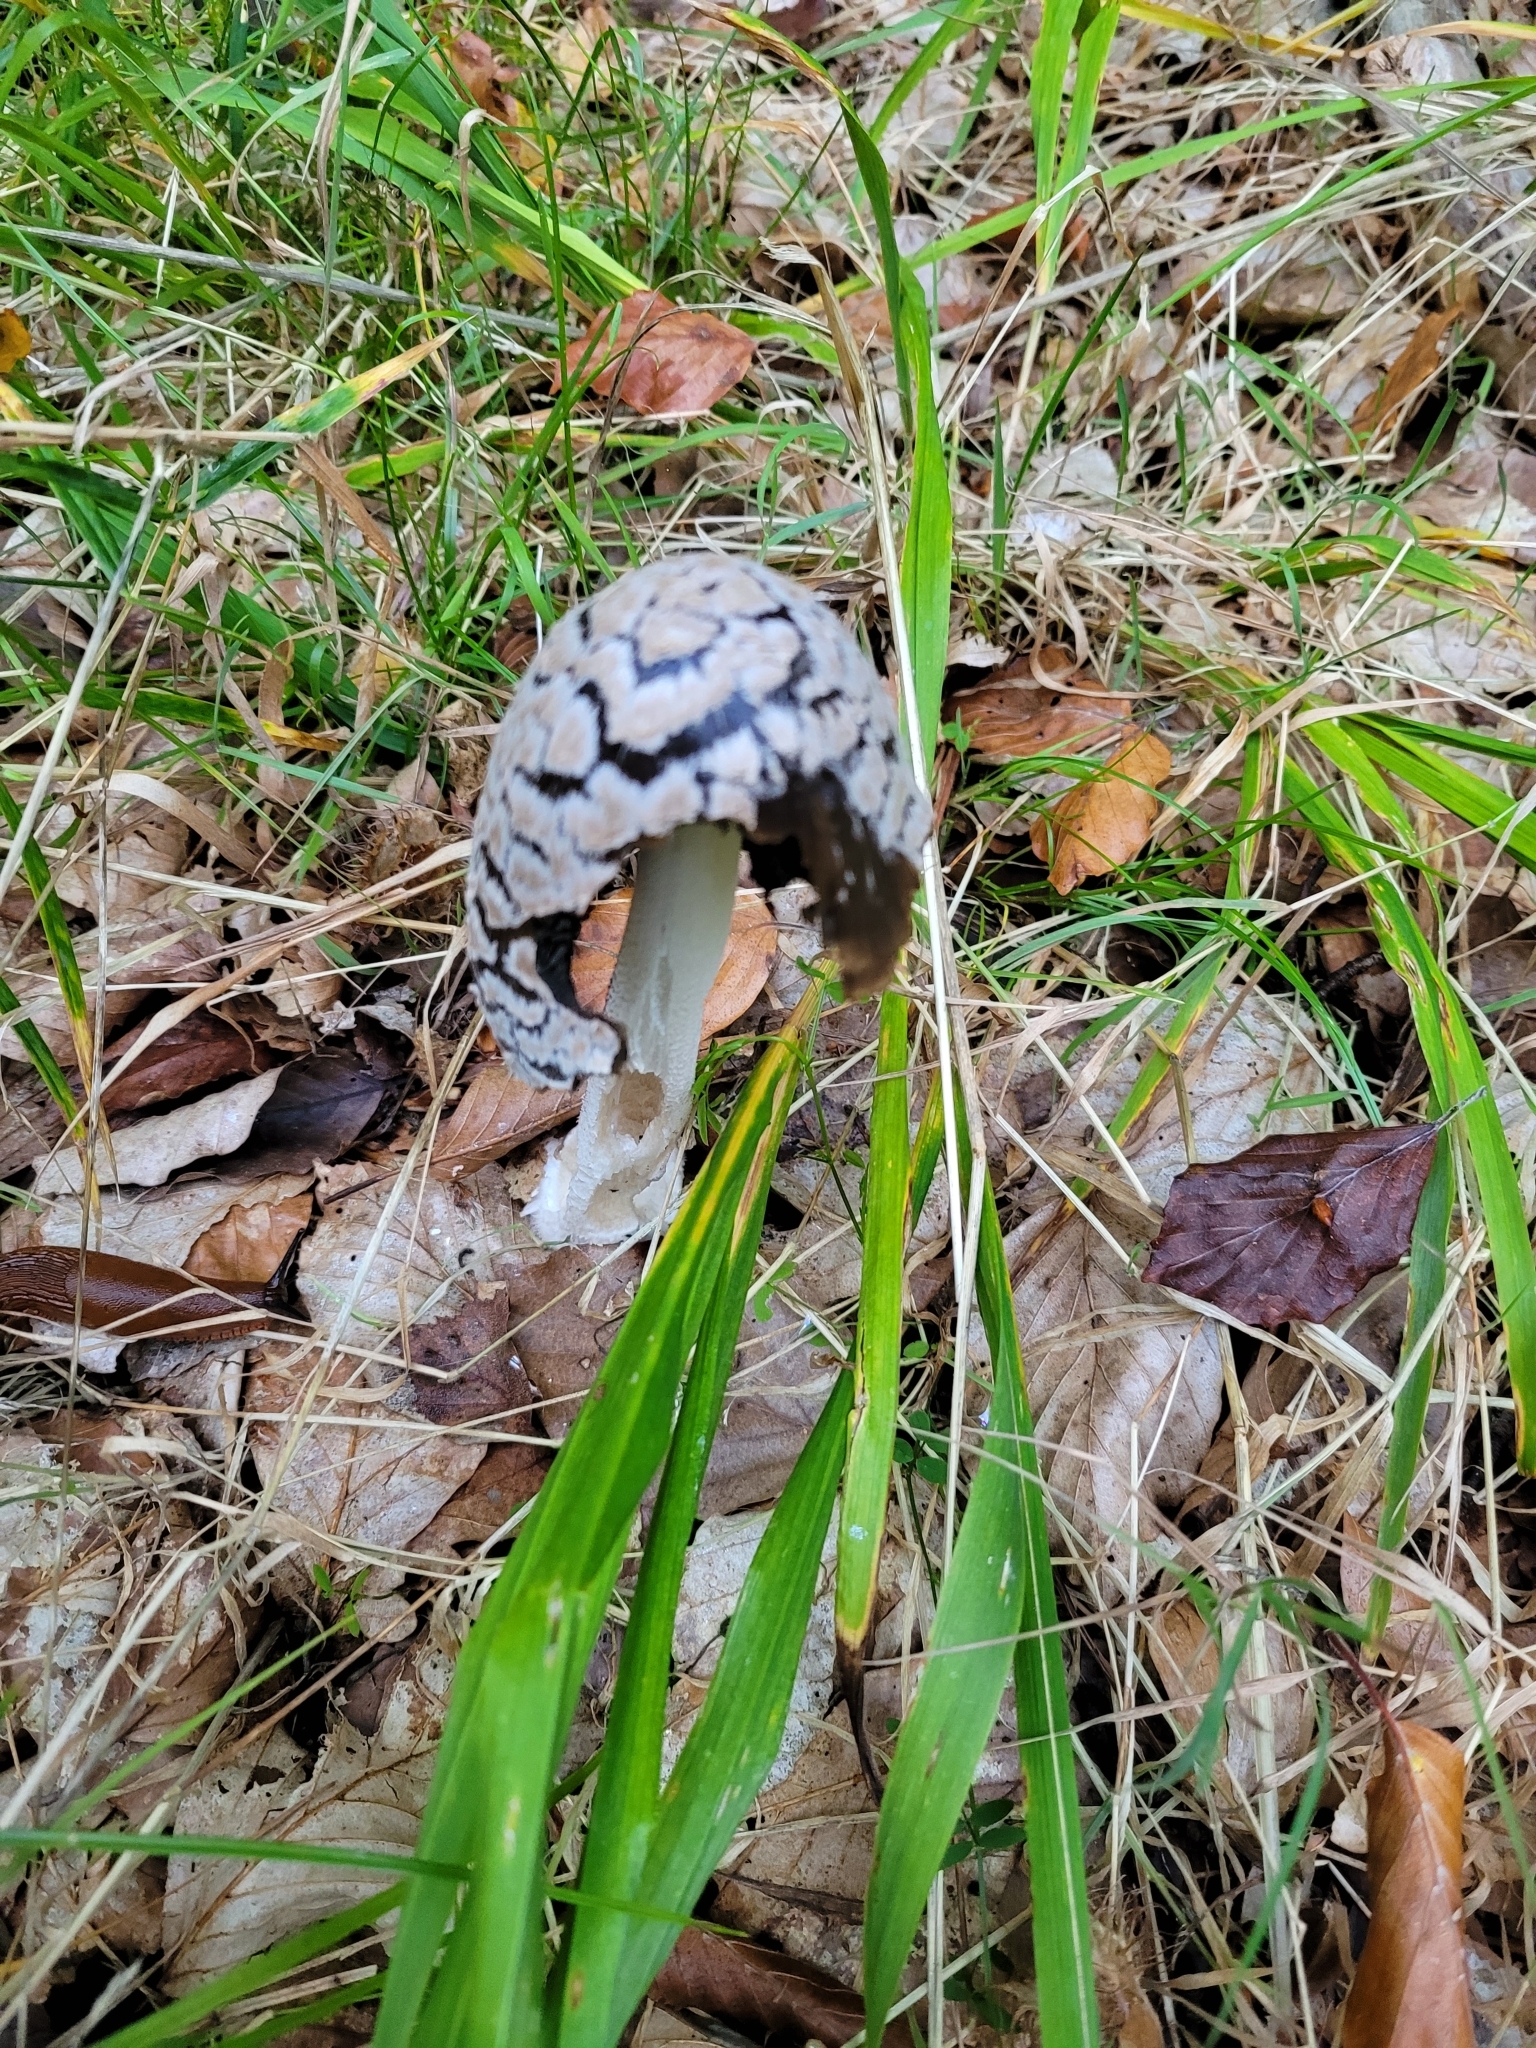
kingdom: Fungi
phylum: Basidiomycota
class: Agaricomycetes
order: Agaricales
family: Psathyrellaceae
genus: Coprinopsis
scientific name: Coprinopsis picacea
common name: Magpie inkcap
